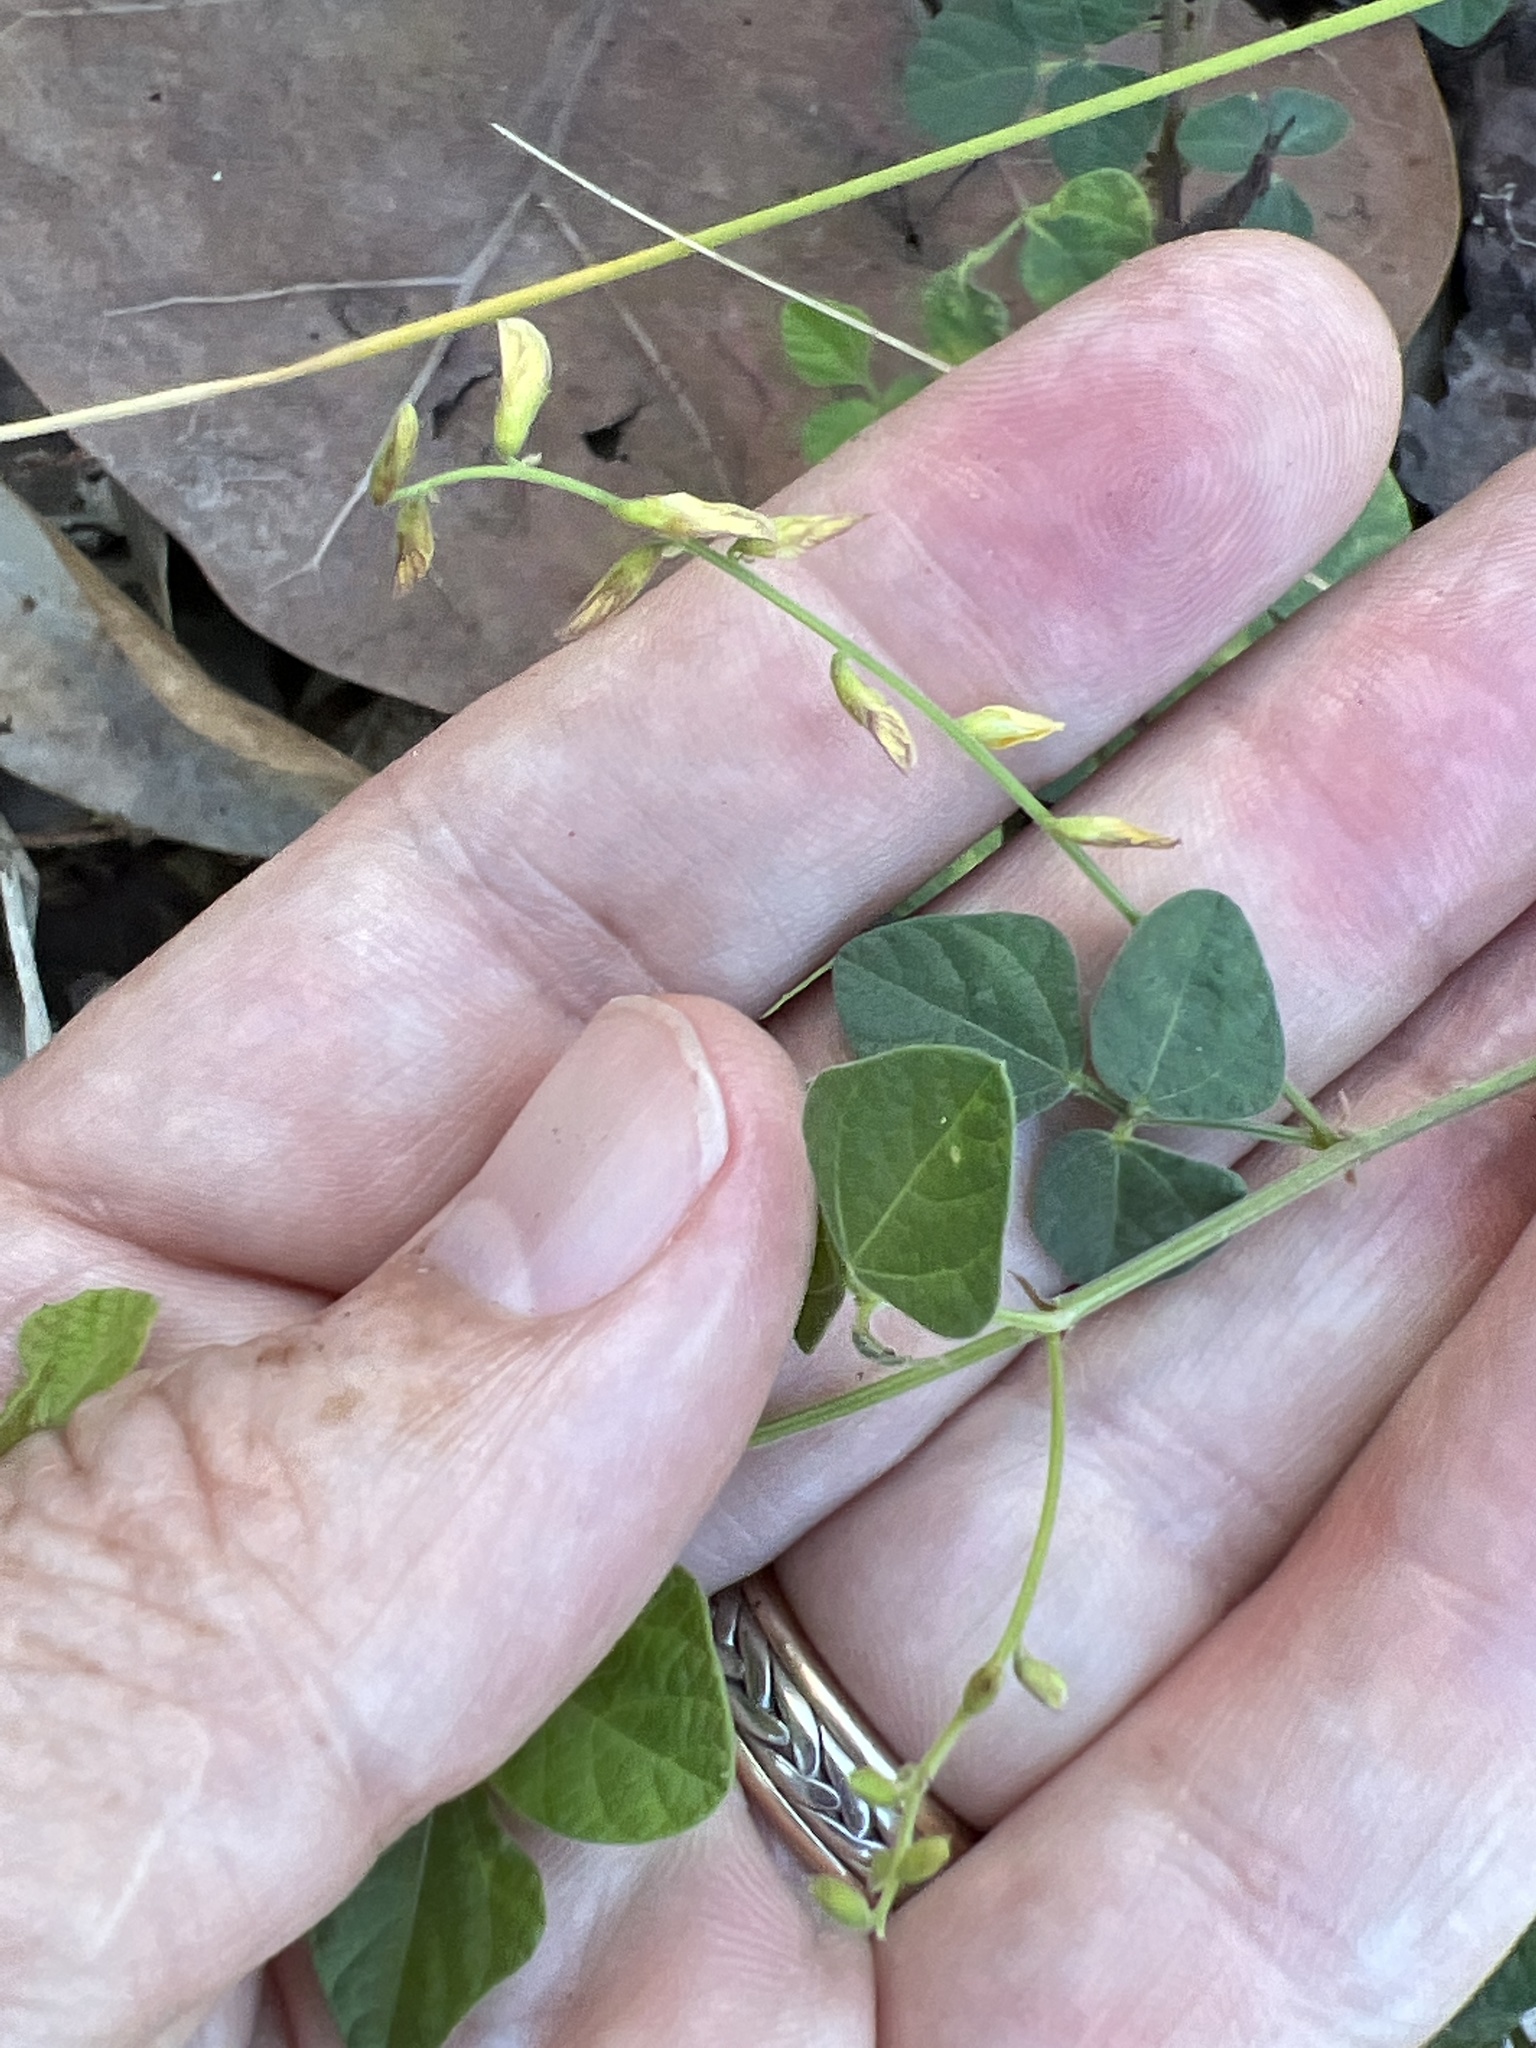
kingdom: Plantae
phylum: Tracheophyta
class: Magnoliopsida
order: Fabales
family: Fabaceae
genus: Rhynchosia
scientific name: Rhynchosia reticulata
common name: Pea withe
